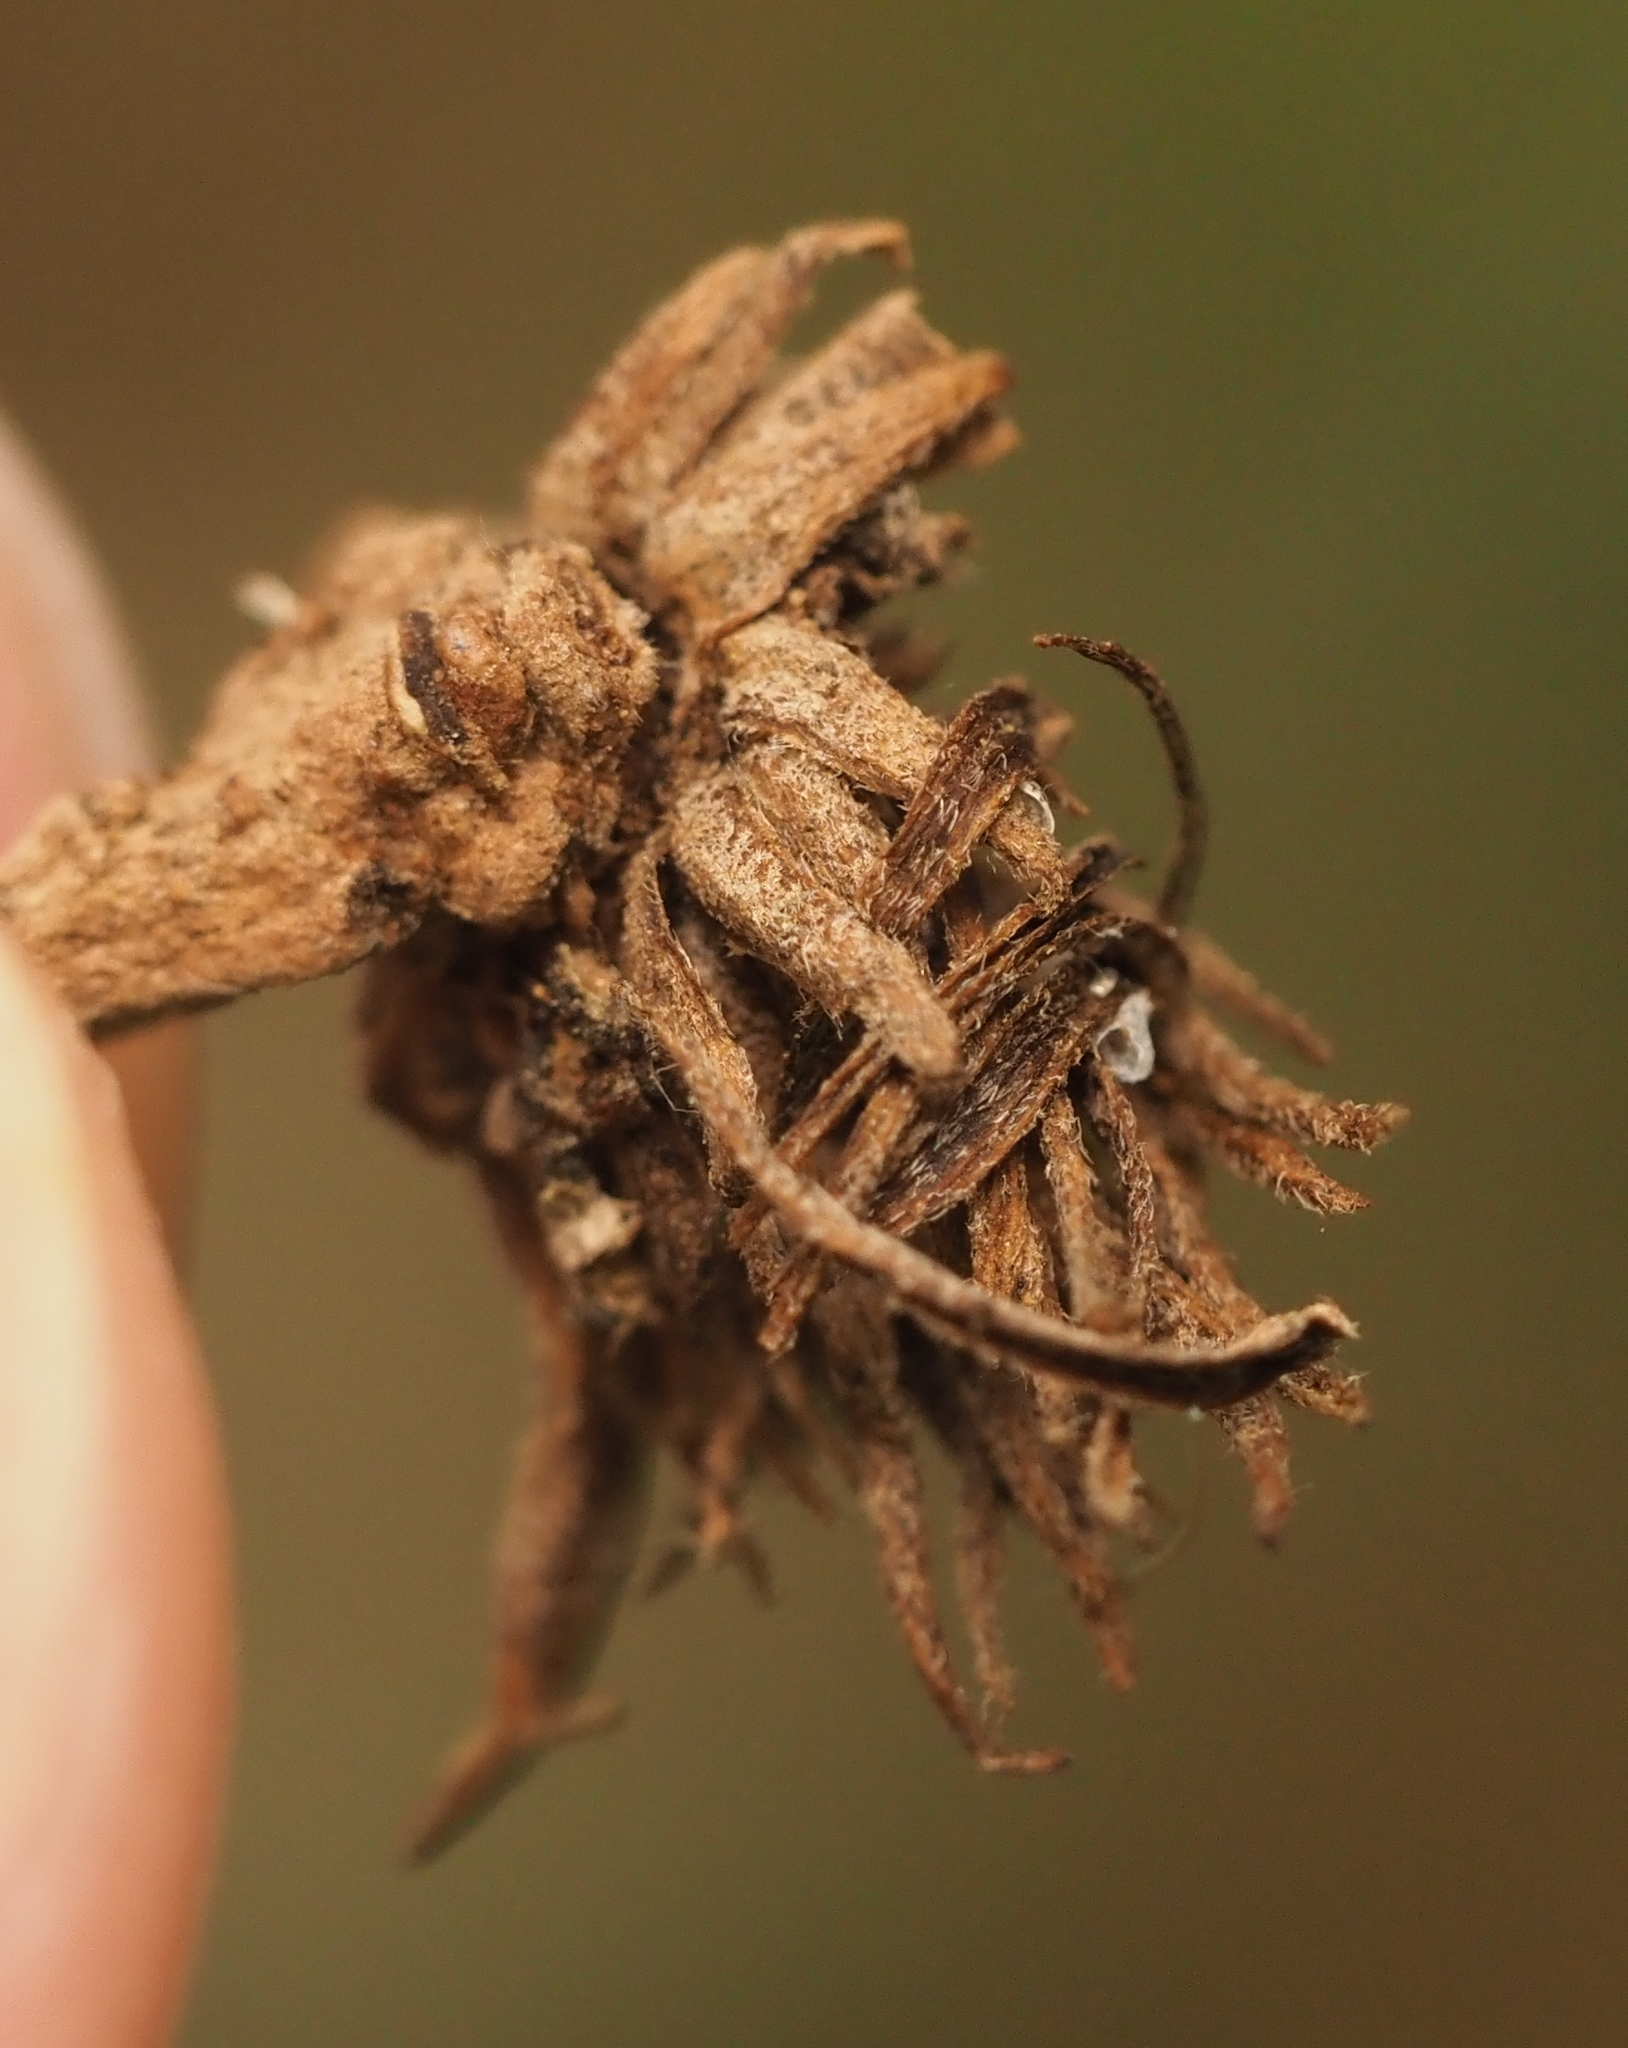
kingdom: Animalia
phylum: Arthropoda
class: Insecta
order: Hymenoptera
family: Cynipidae
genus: Andricus
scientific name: Andricus quercusfoliatus
